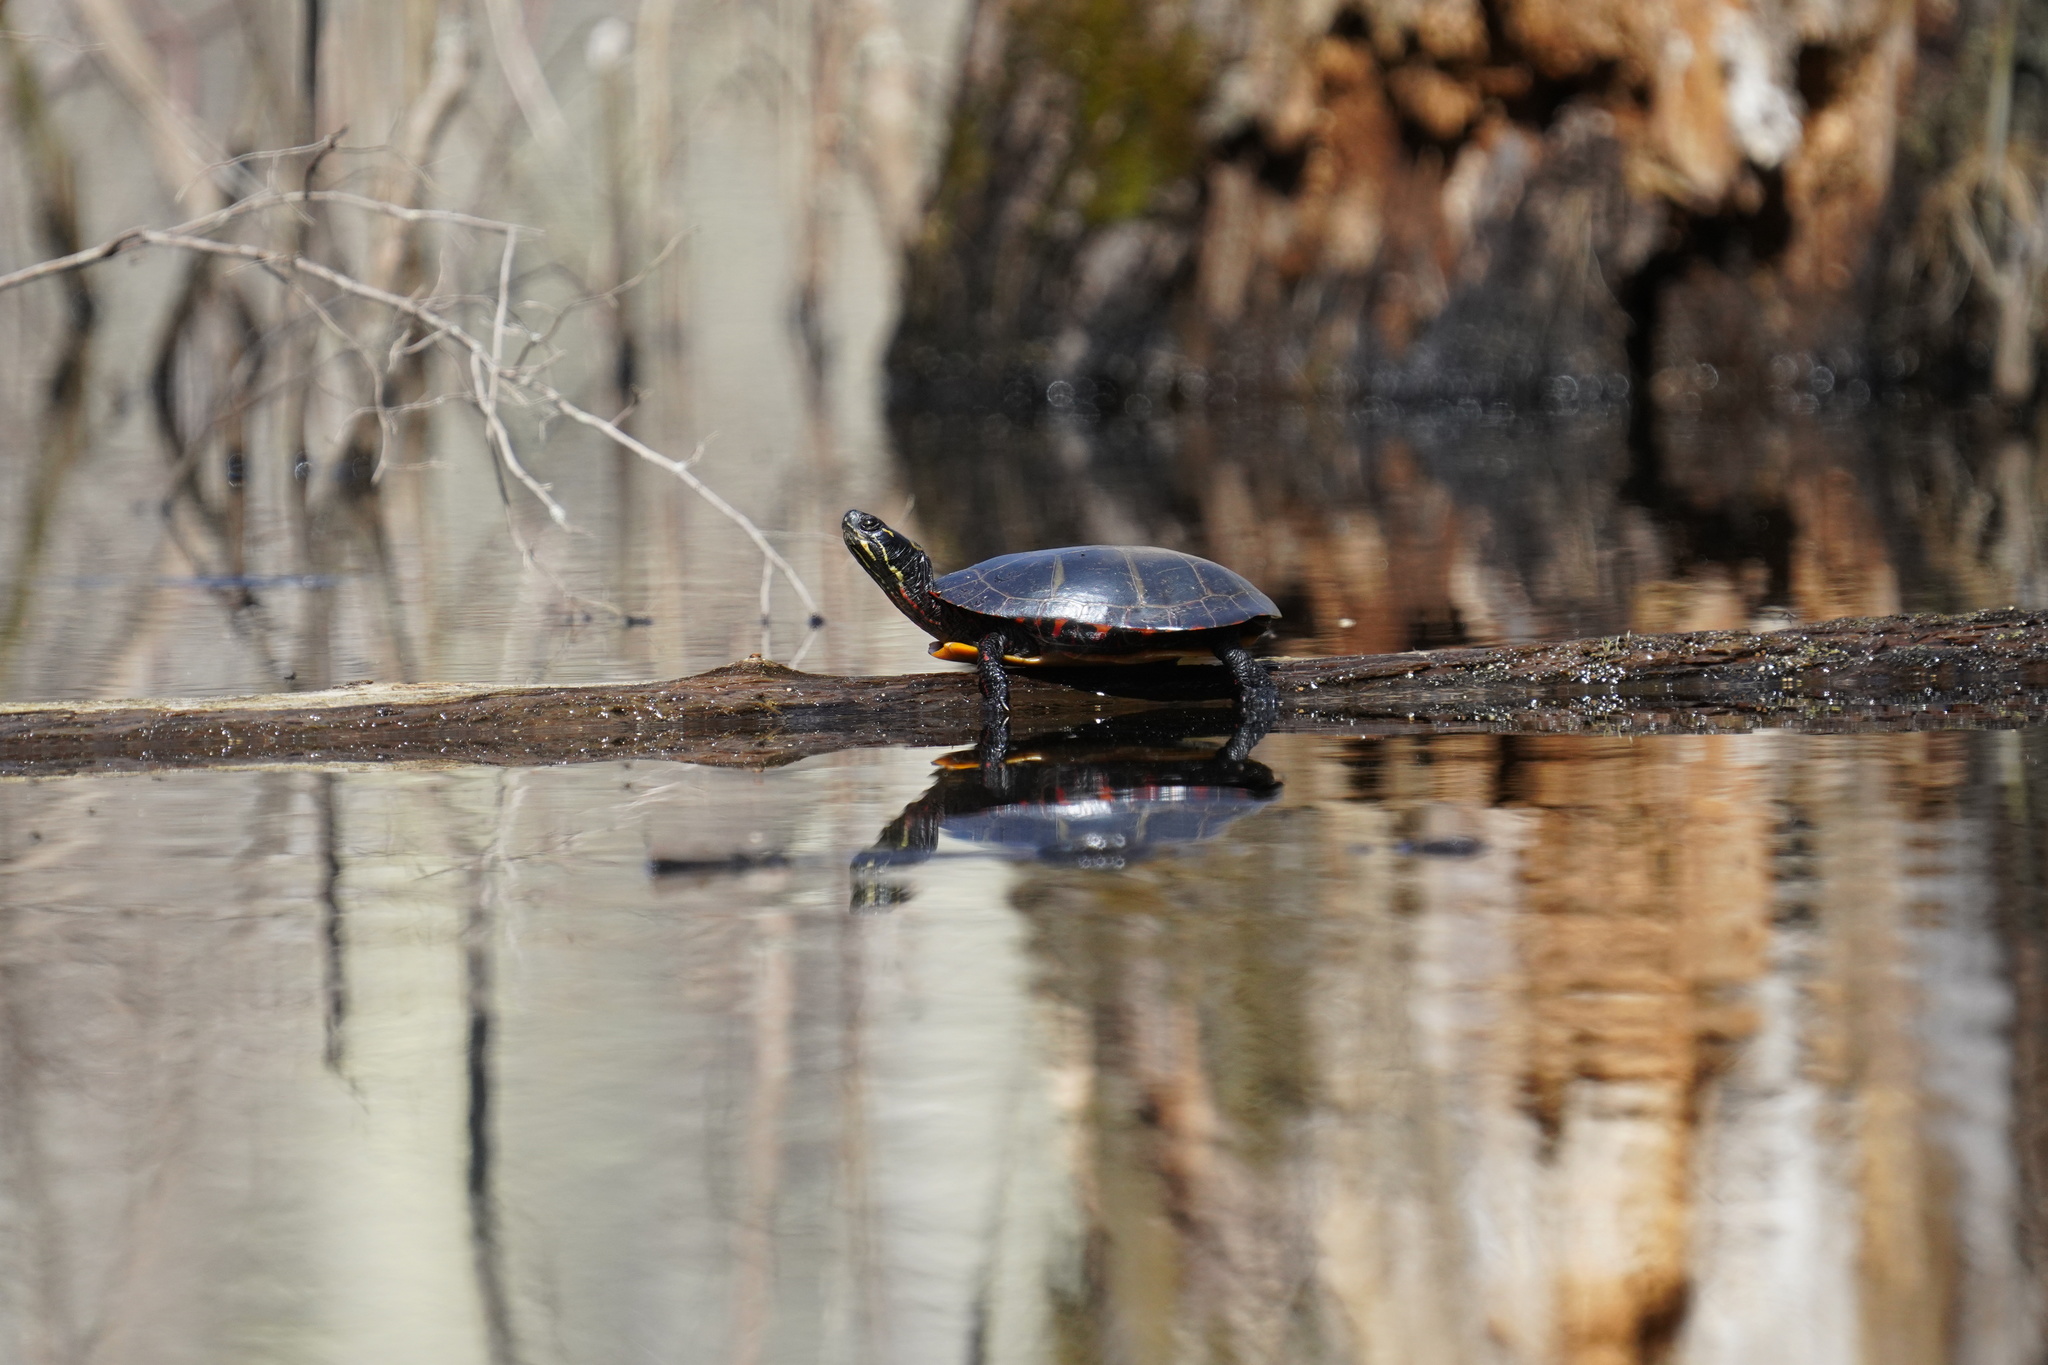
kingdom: Animalia
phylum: Chordata
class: Testudines
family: Emydidae
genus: Chrysemys
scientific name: Chrysemys picta
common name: Painted turtle
